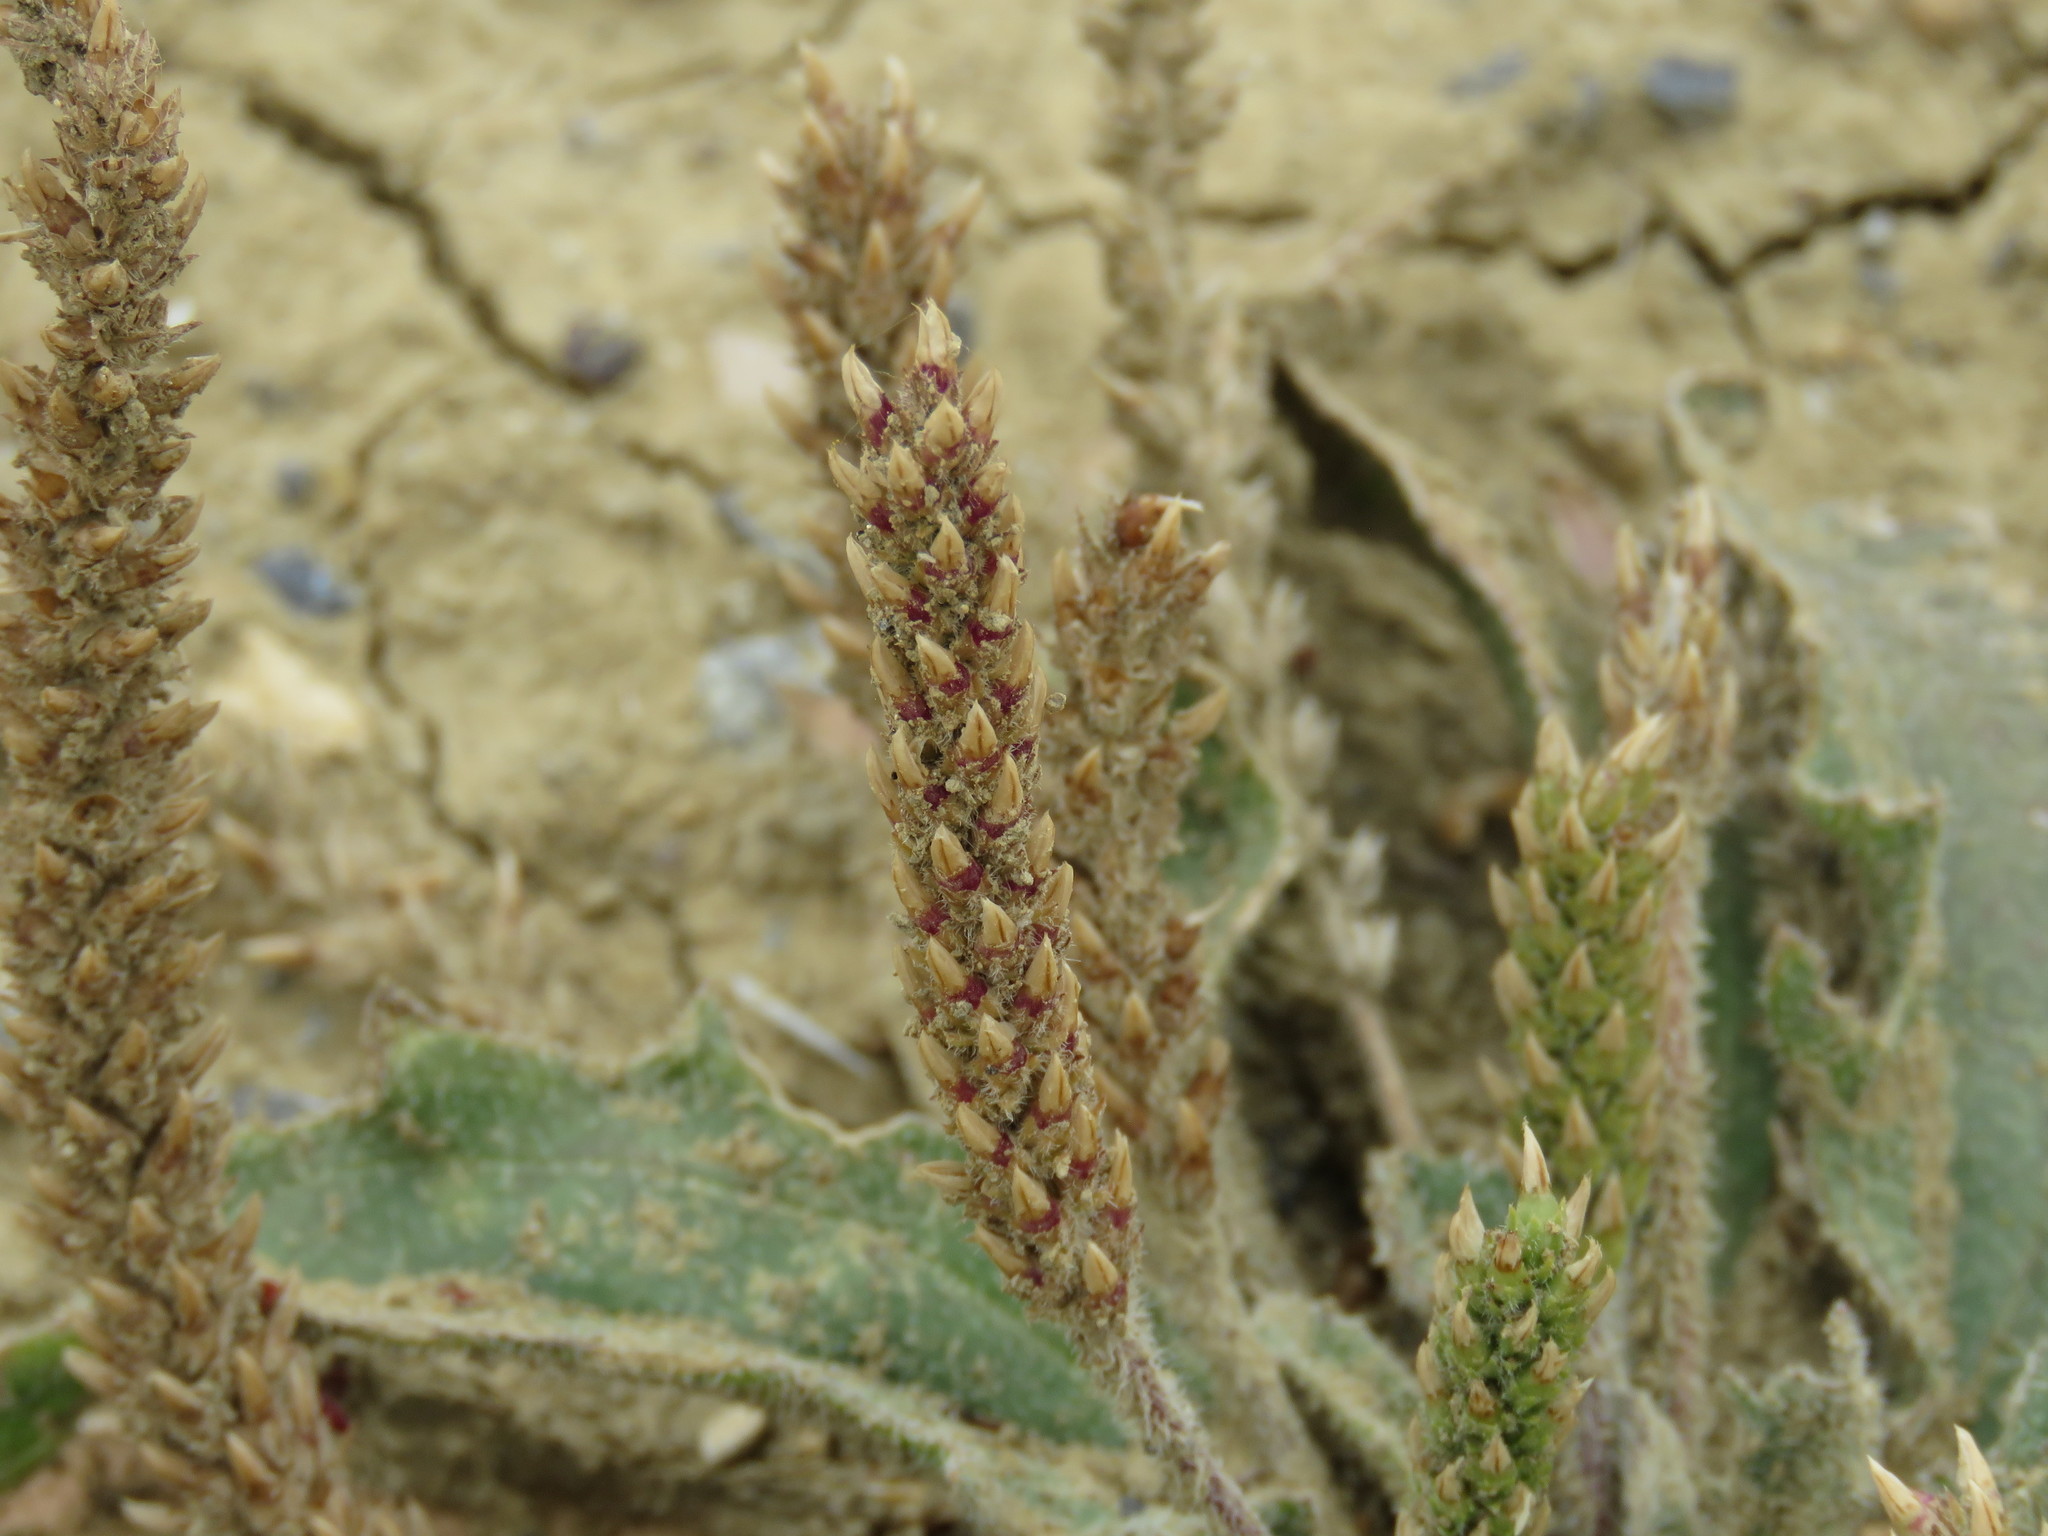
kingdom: Plantae
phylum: Tracheophyta
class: Magnoliopsida
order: Lamiales
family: Plantaginaceae
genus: Plantago
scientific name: Plantago rhodosperma
